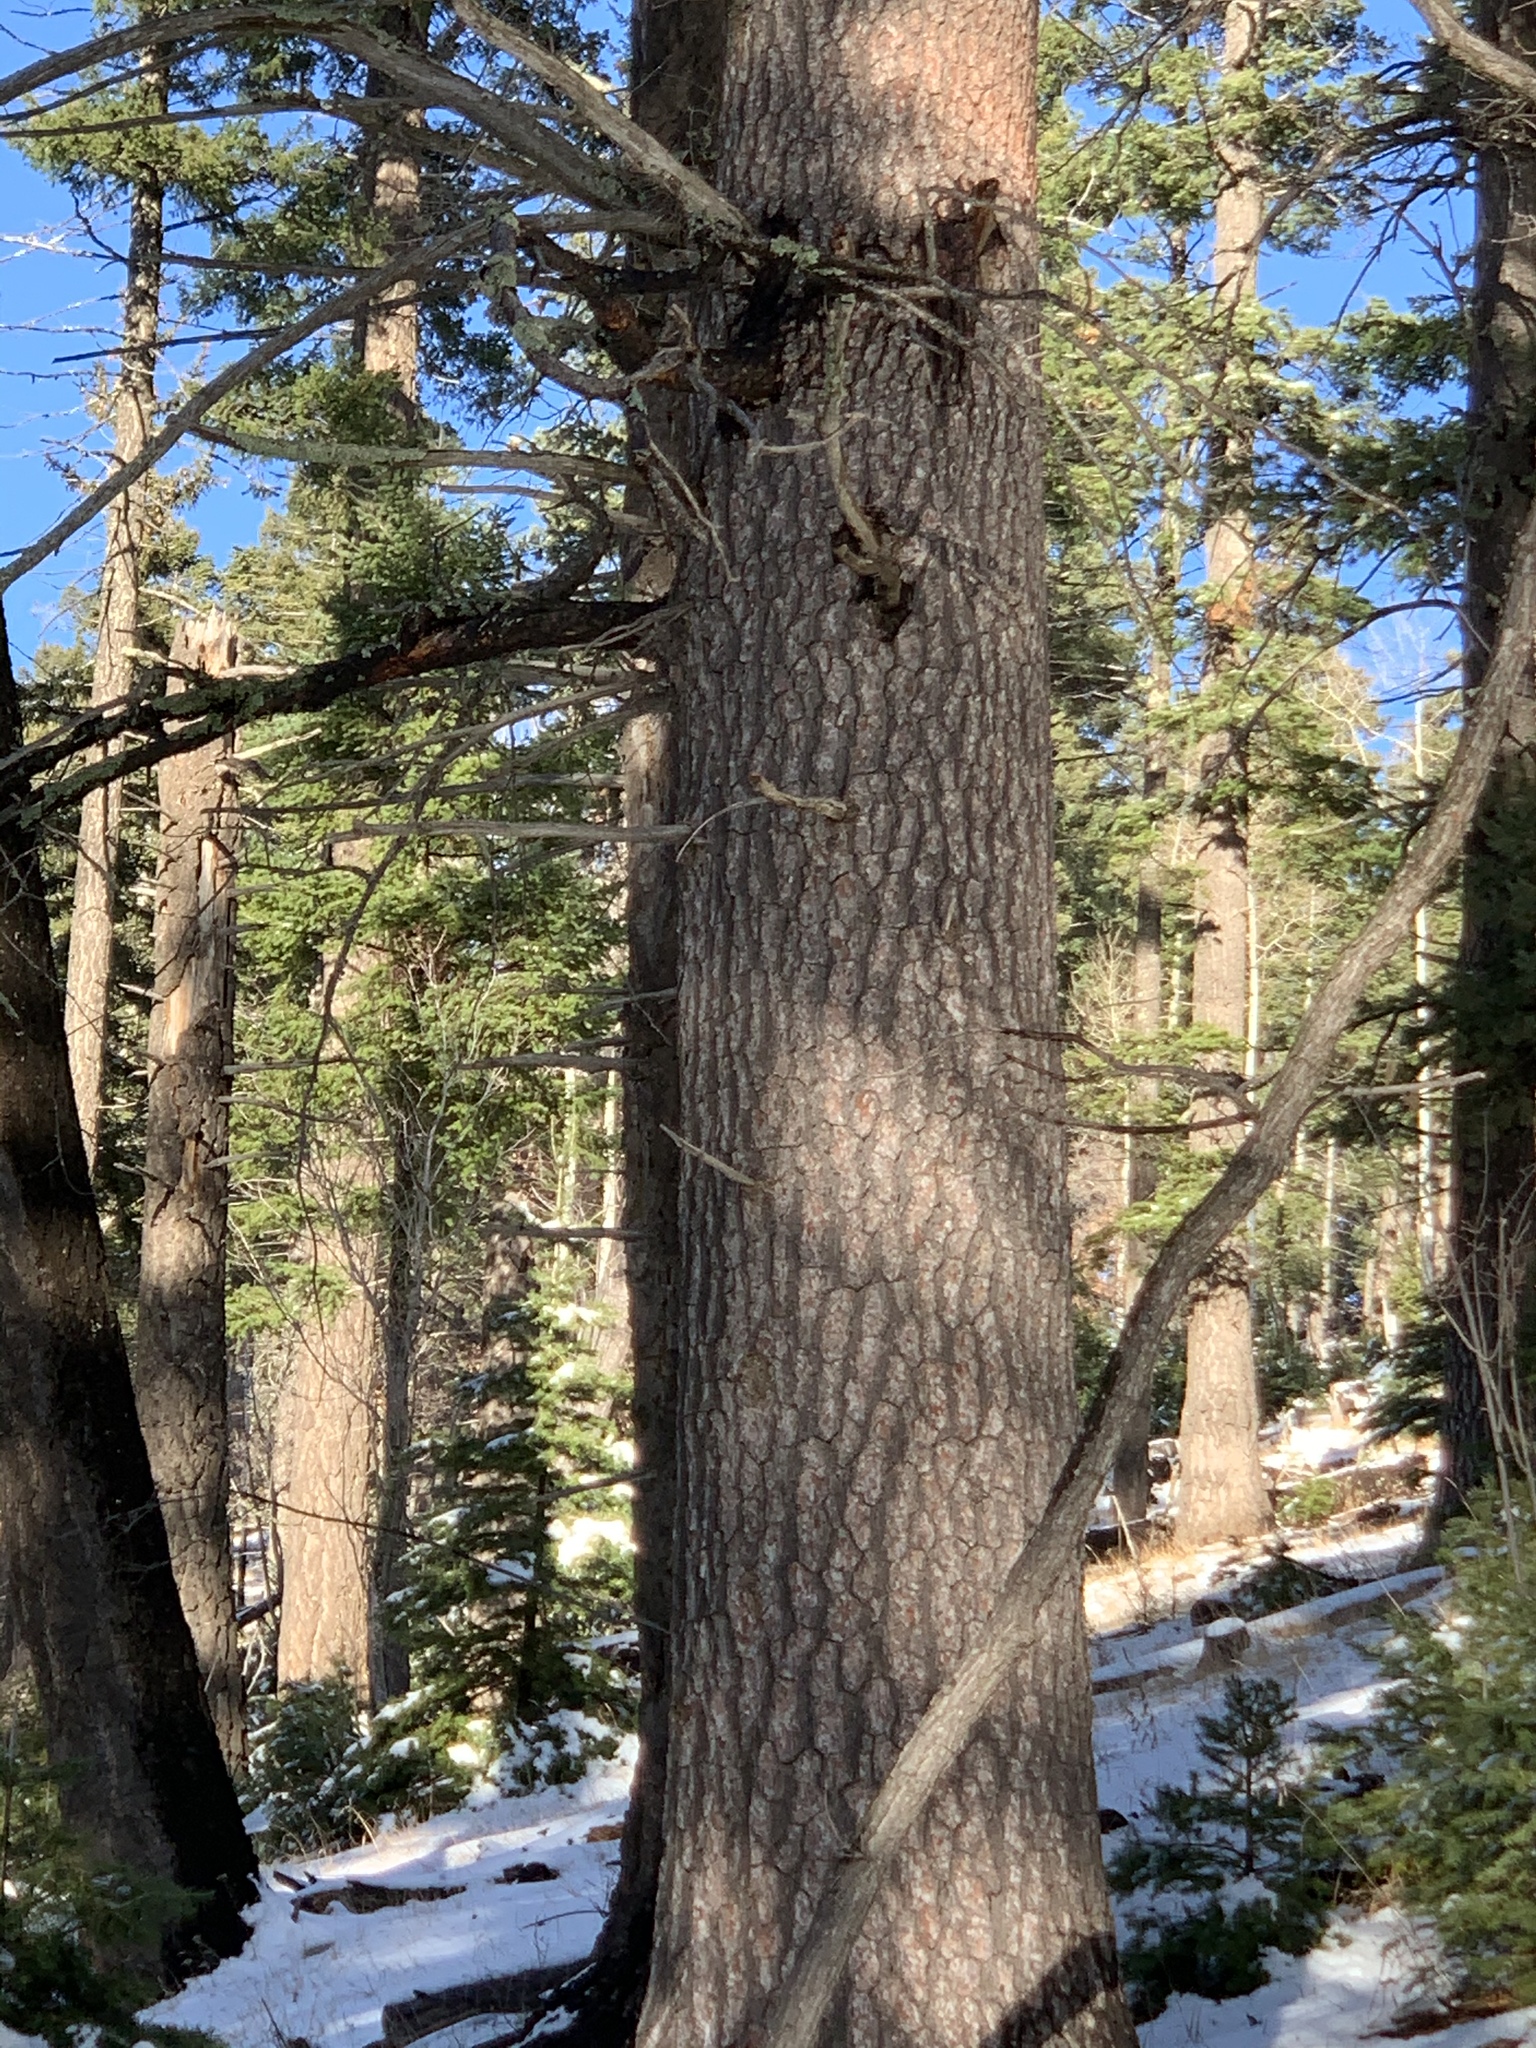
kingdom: Plantae
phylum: Tracheophyta
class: Pinopsida
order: Pinales
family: Pinaceae
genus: Pinus
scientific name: Pinus strobiformis
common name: Southwestern white pine
